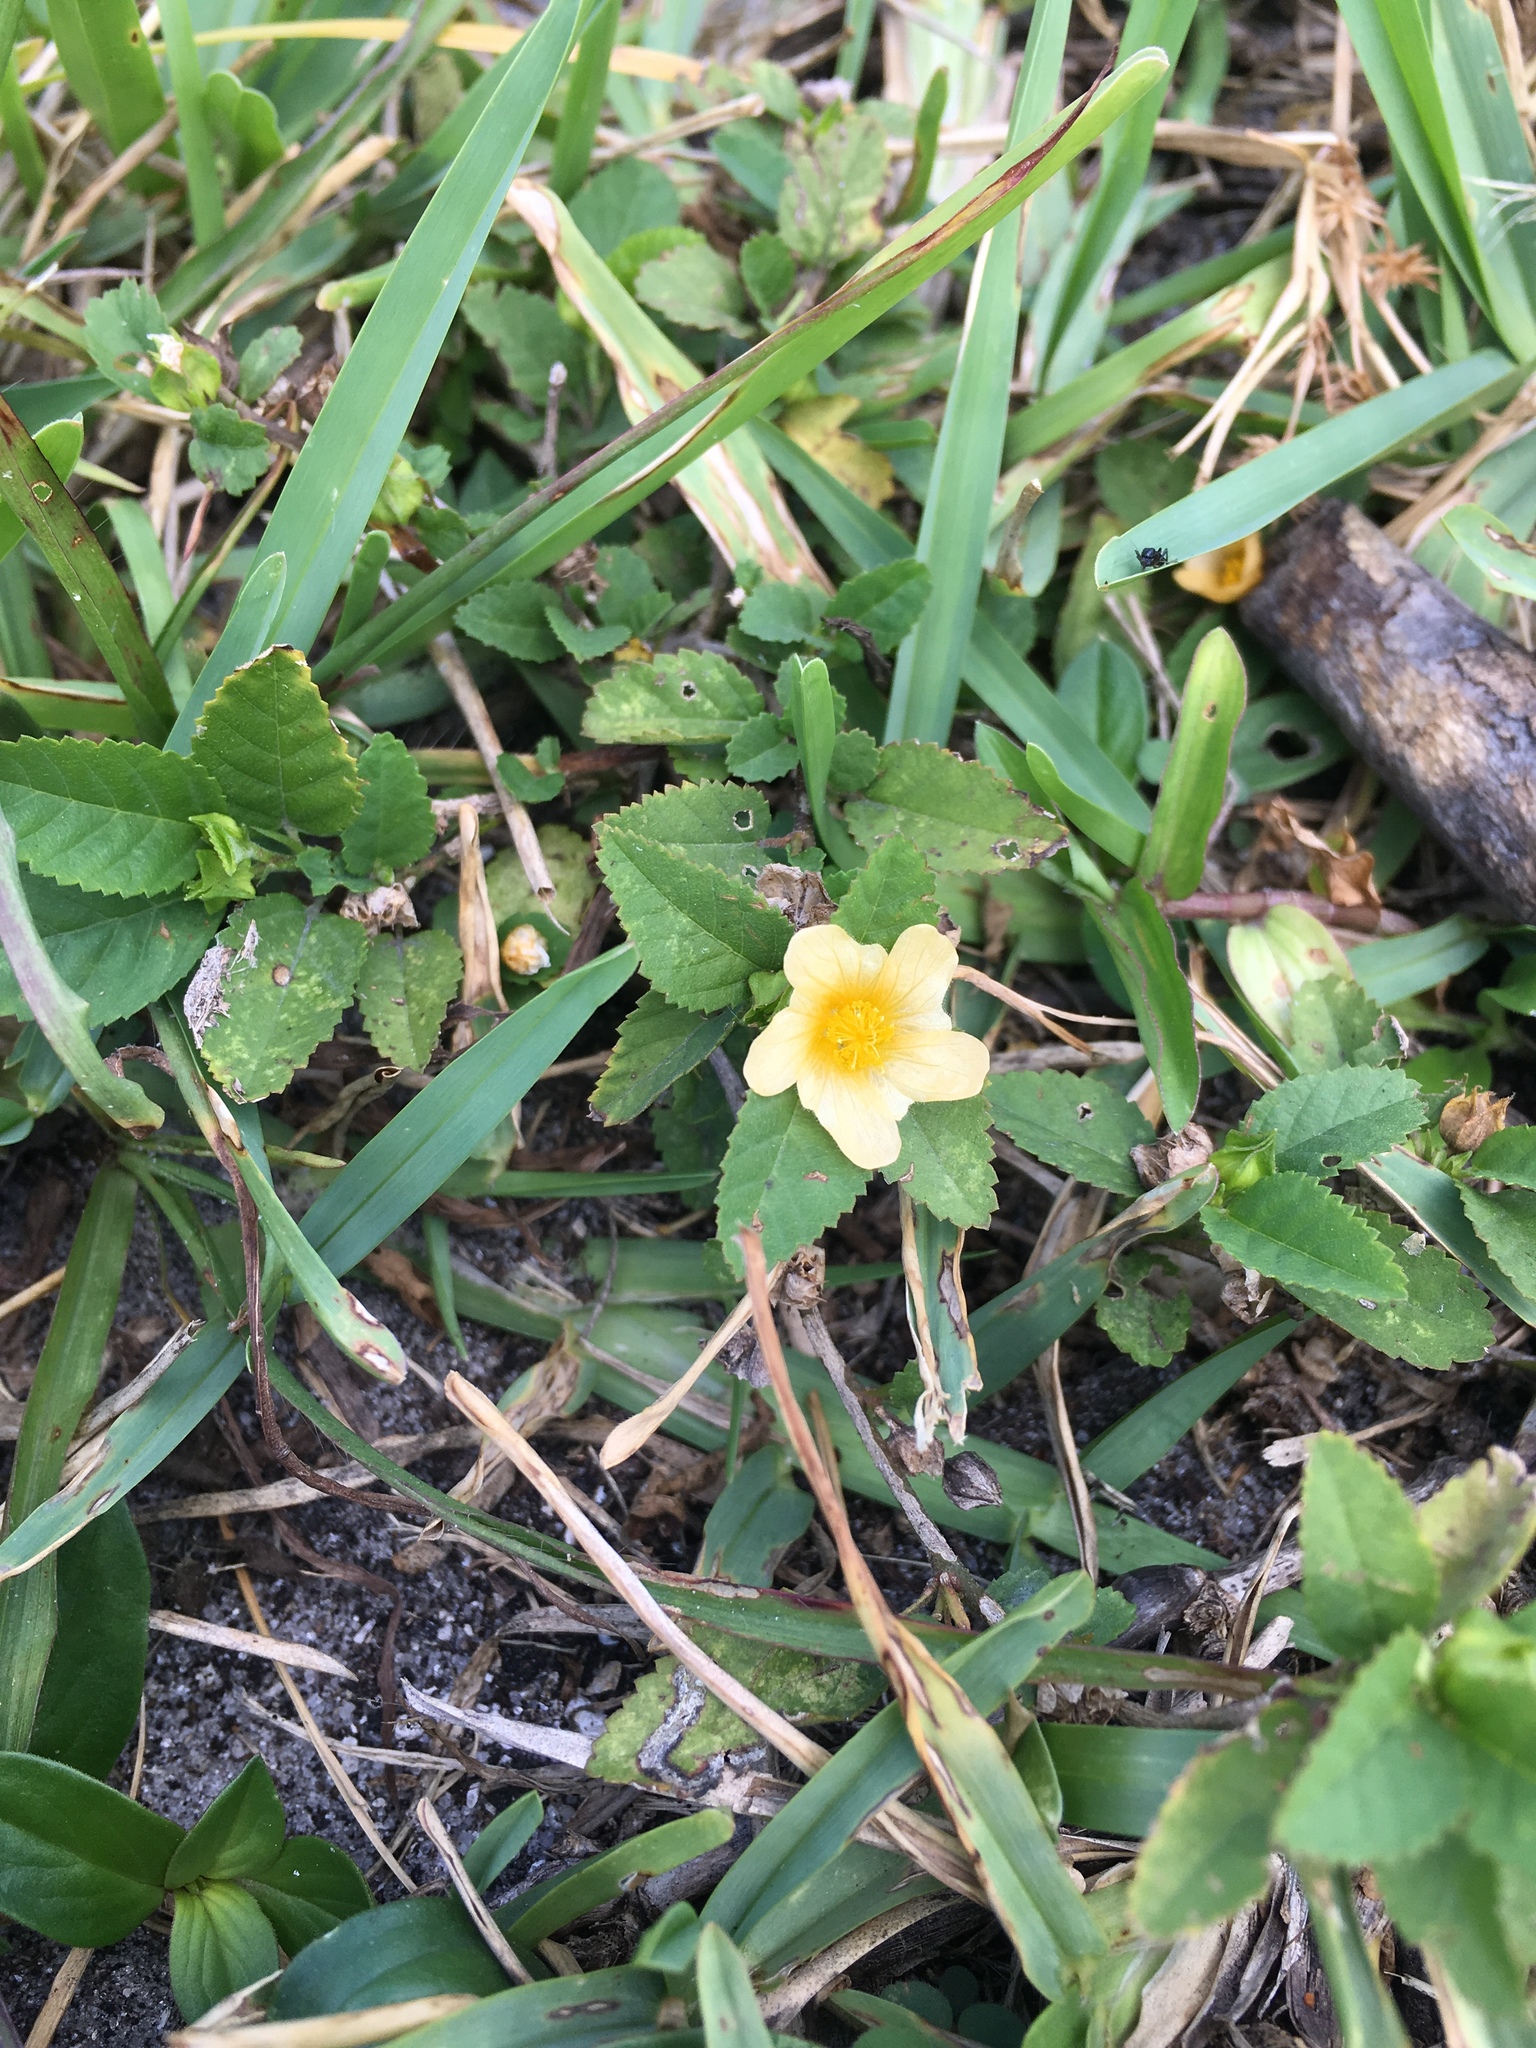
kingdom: Plantae
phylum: Tracheophyta
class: Magnoliopsida
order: Malvales
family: Malvaceae
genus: Sida
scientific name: Sida ulmifolia
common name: Broom weed
